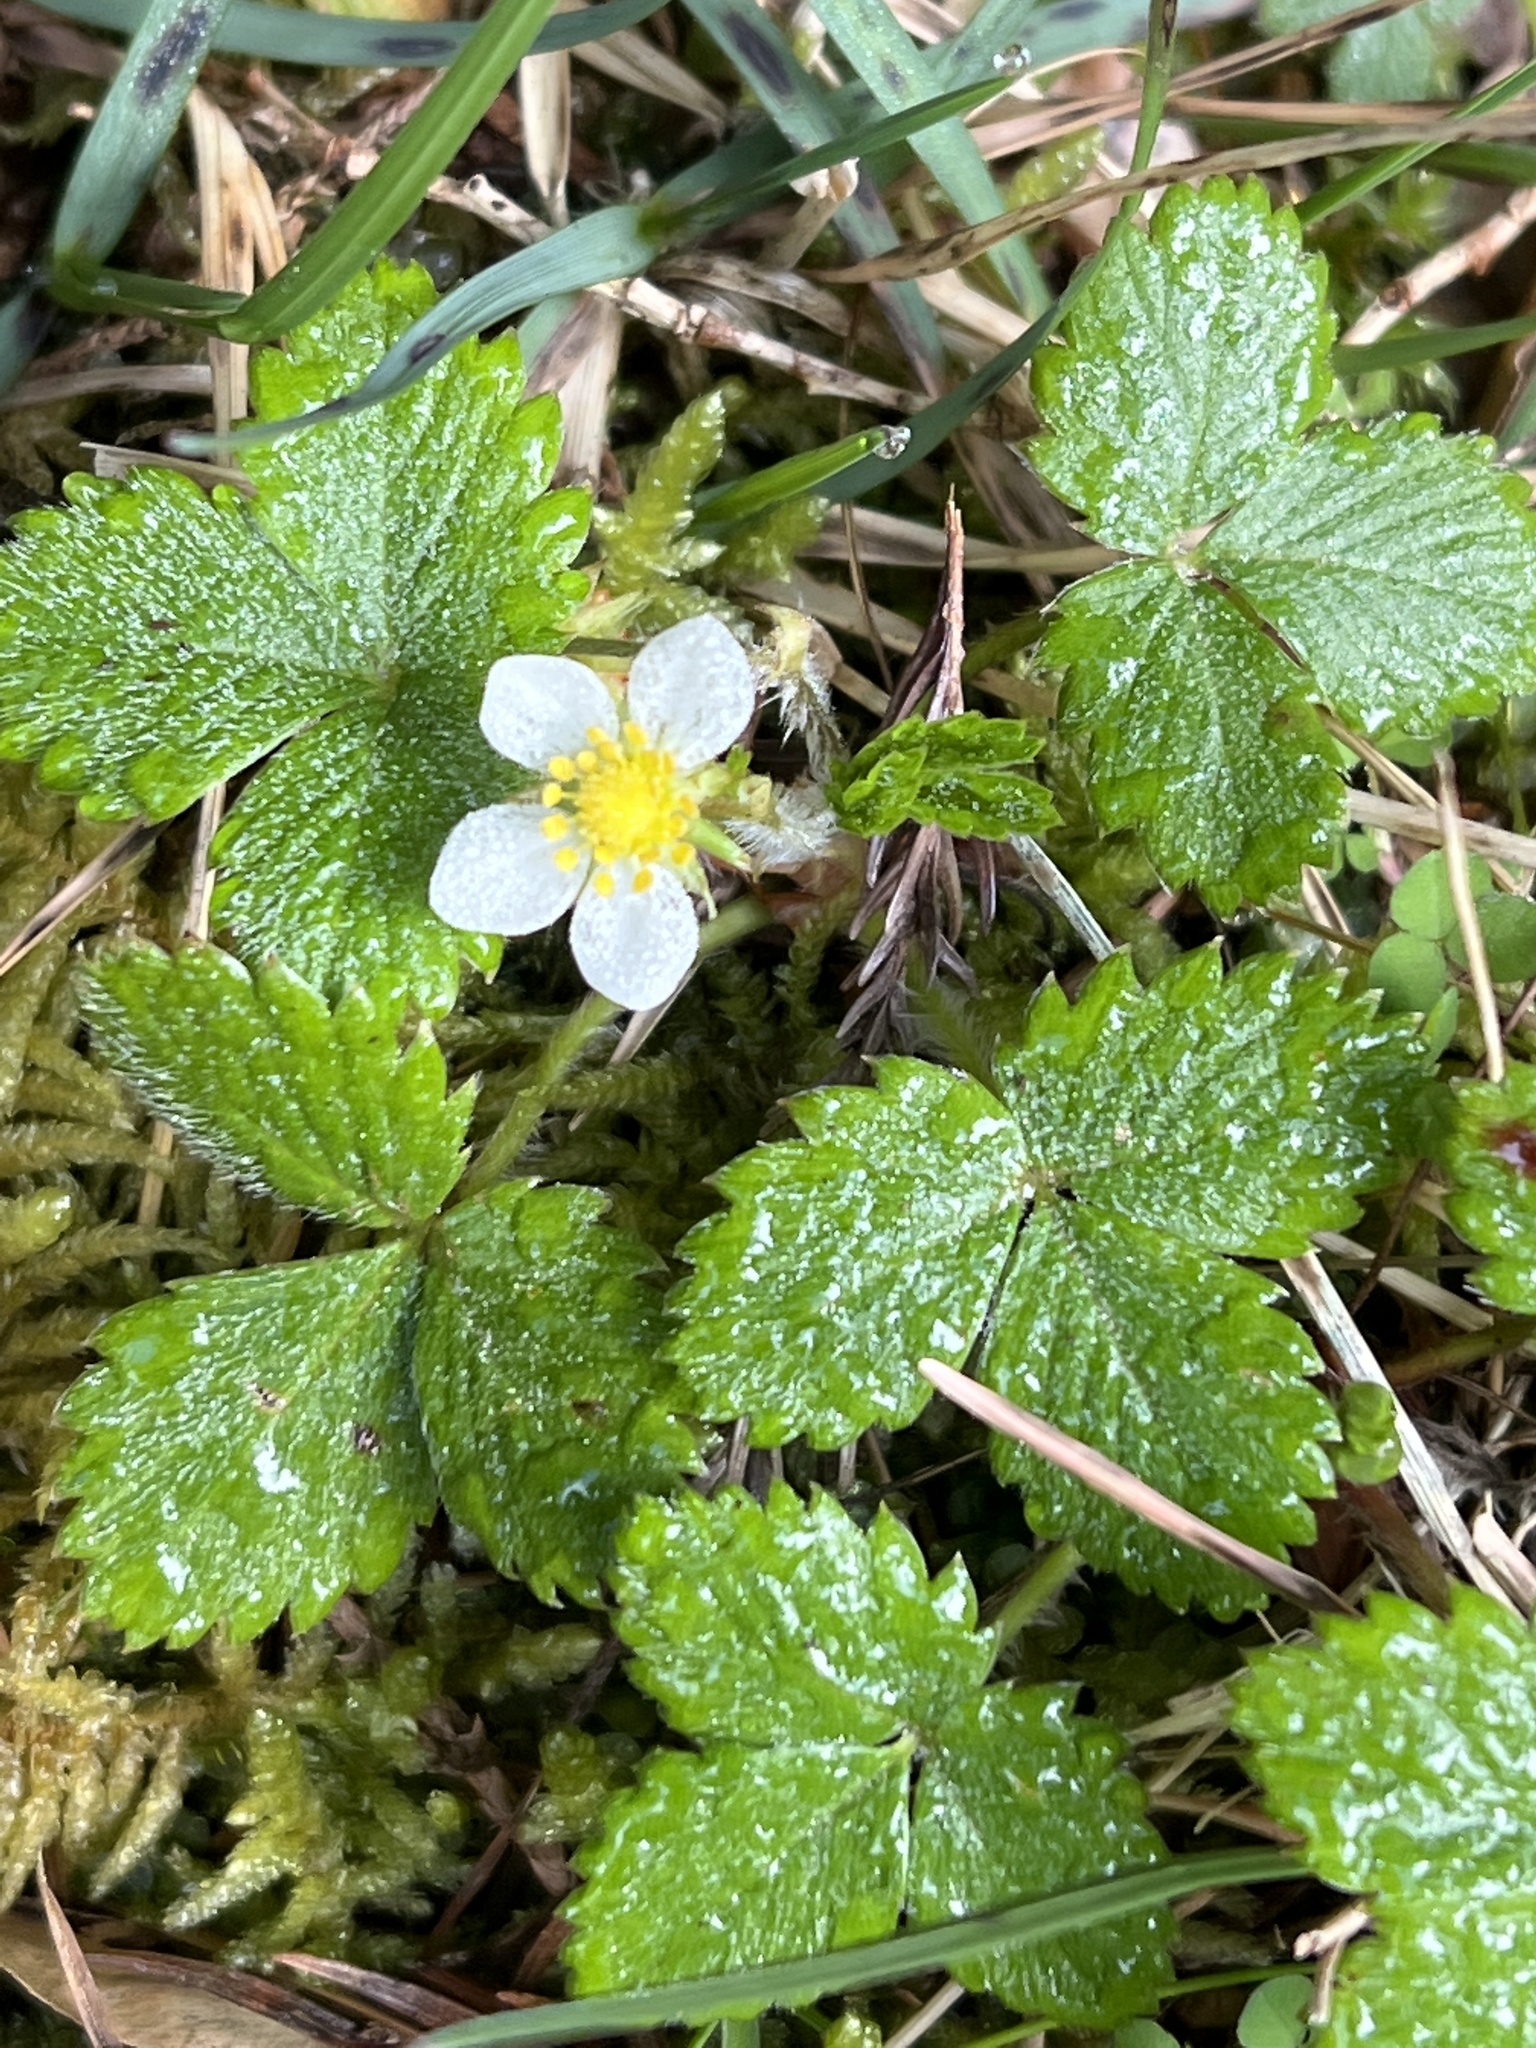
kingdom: Plantae
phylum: Tracheophyta
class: Magnoliopsida
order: Rosales
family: Rosaceae
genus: Fragaria
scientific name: Fragaria vesca
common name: Wild strawberry
